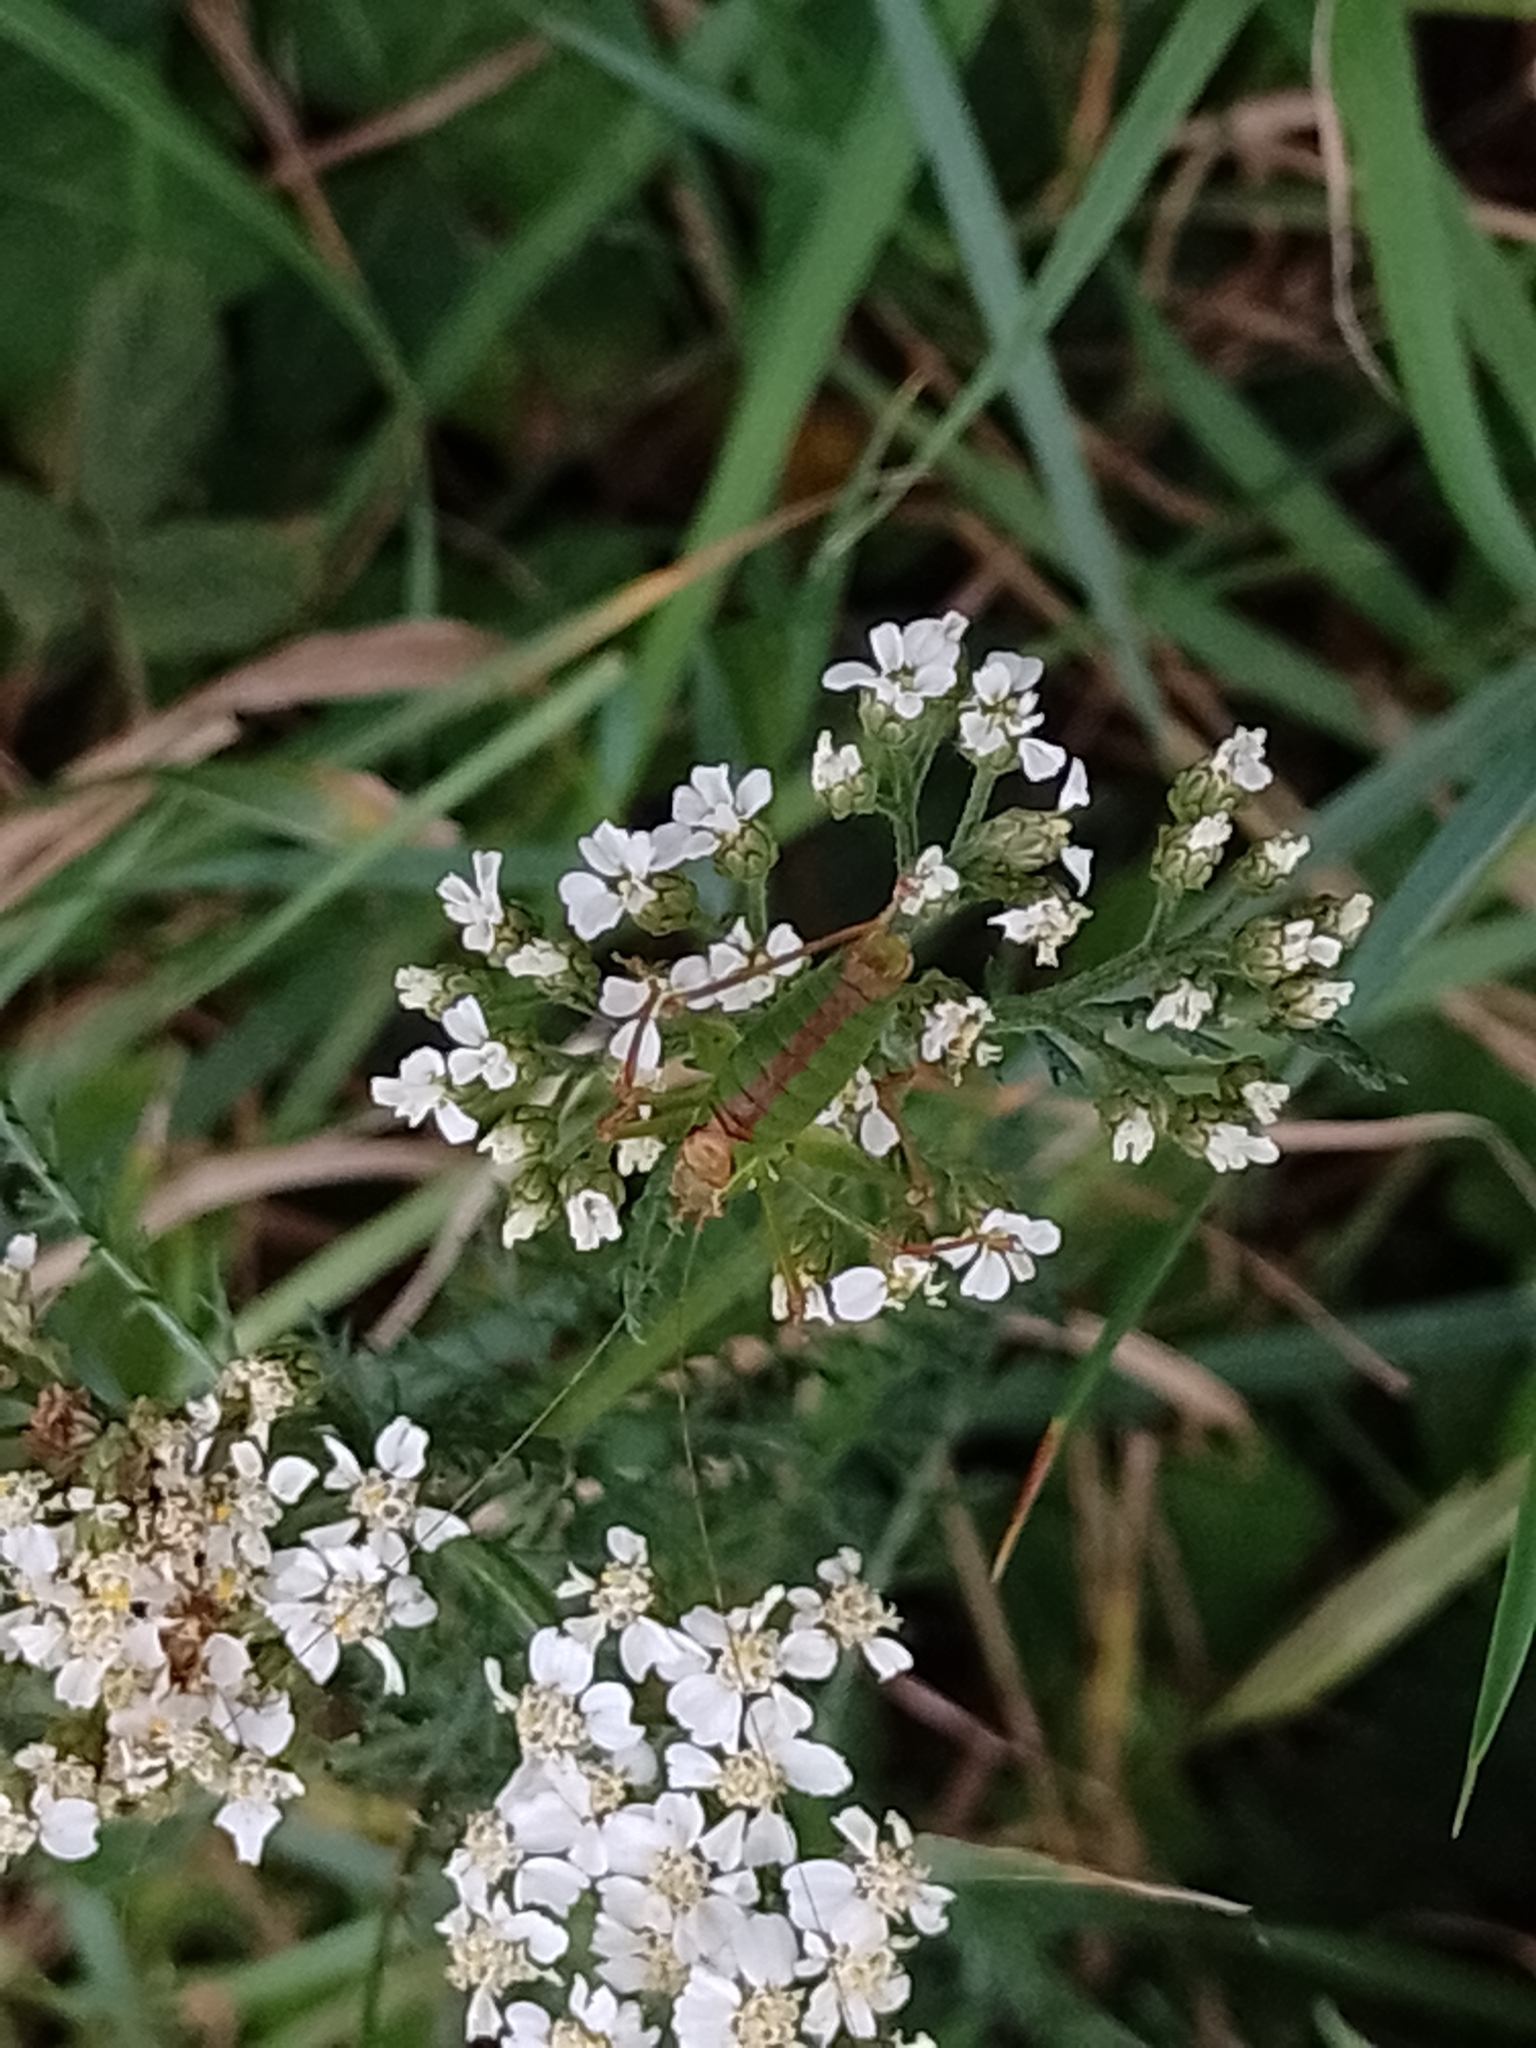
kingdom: Animalia
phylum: Arthropoda
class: Insecta
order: Orthoptera
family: Tettigoniidae
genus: Leptophyes
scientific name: Leptophyes punctatissima
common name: Speckled bush-cricket
